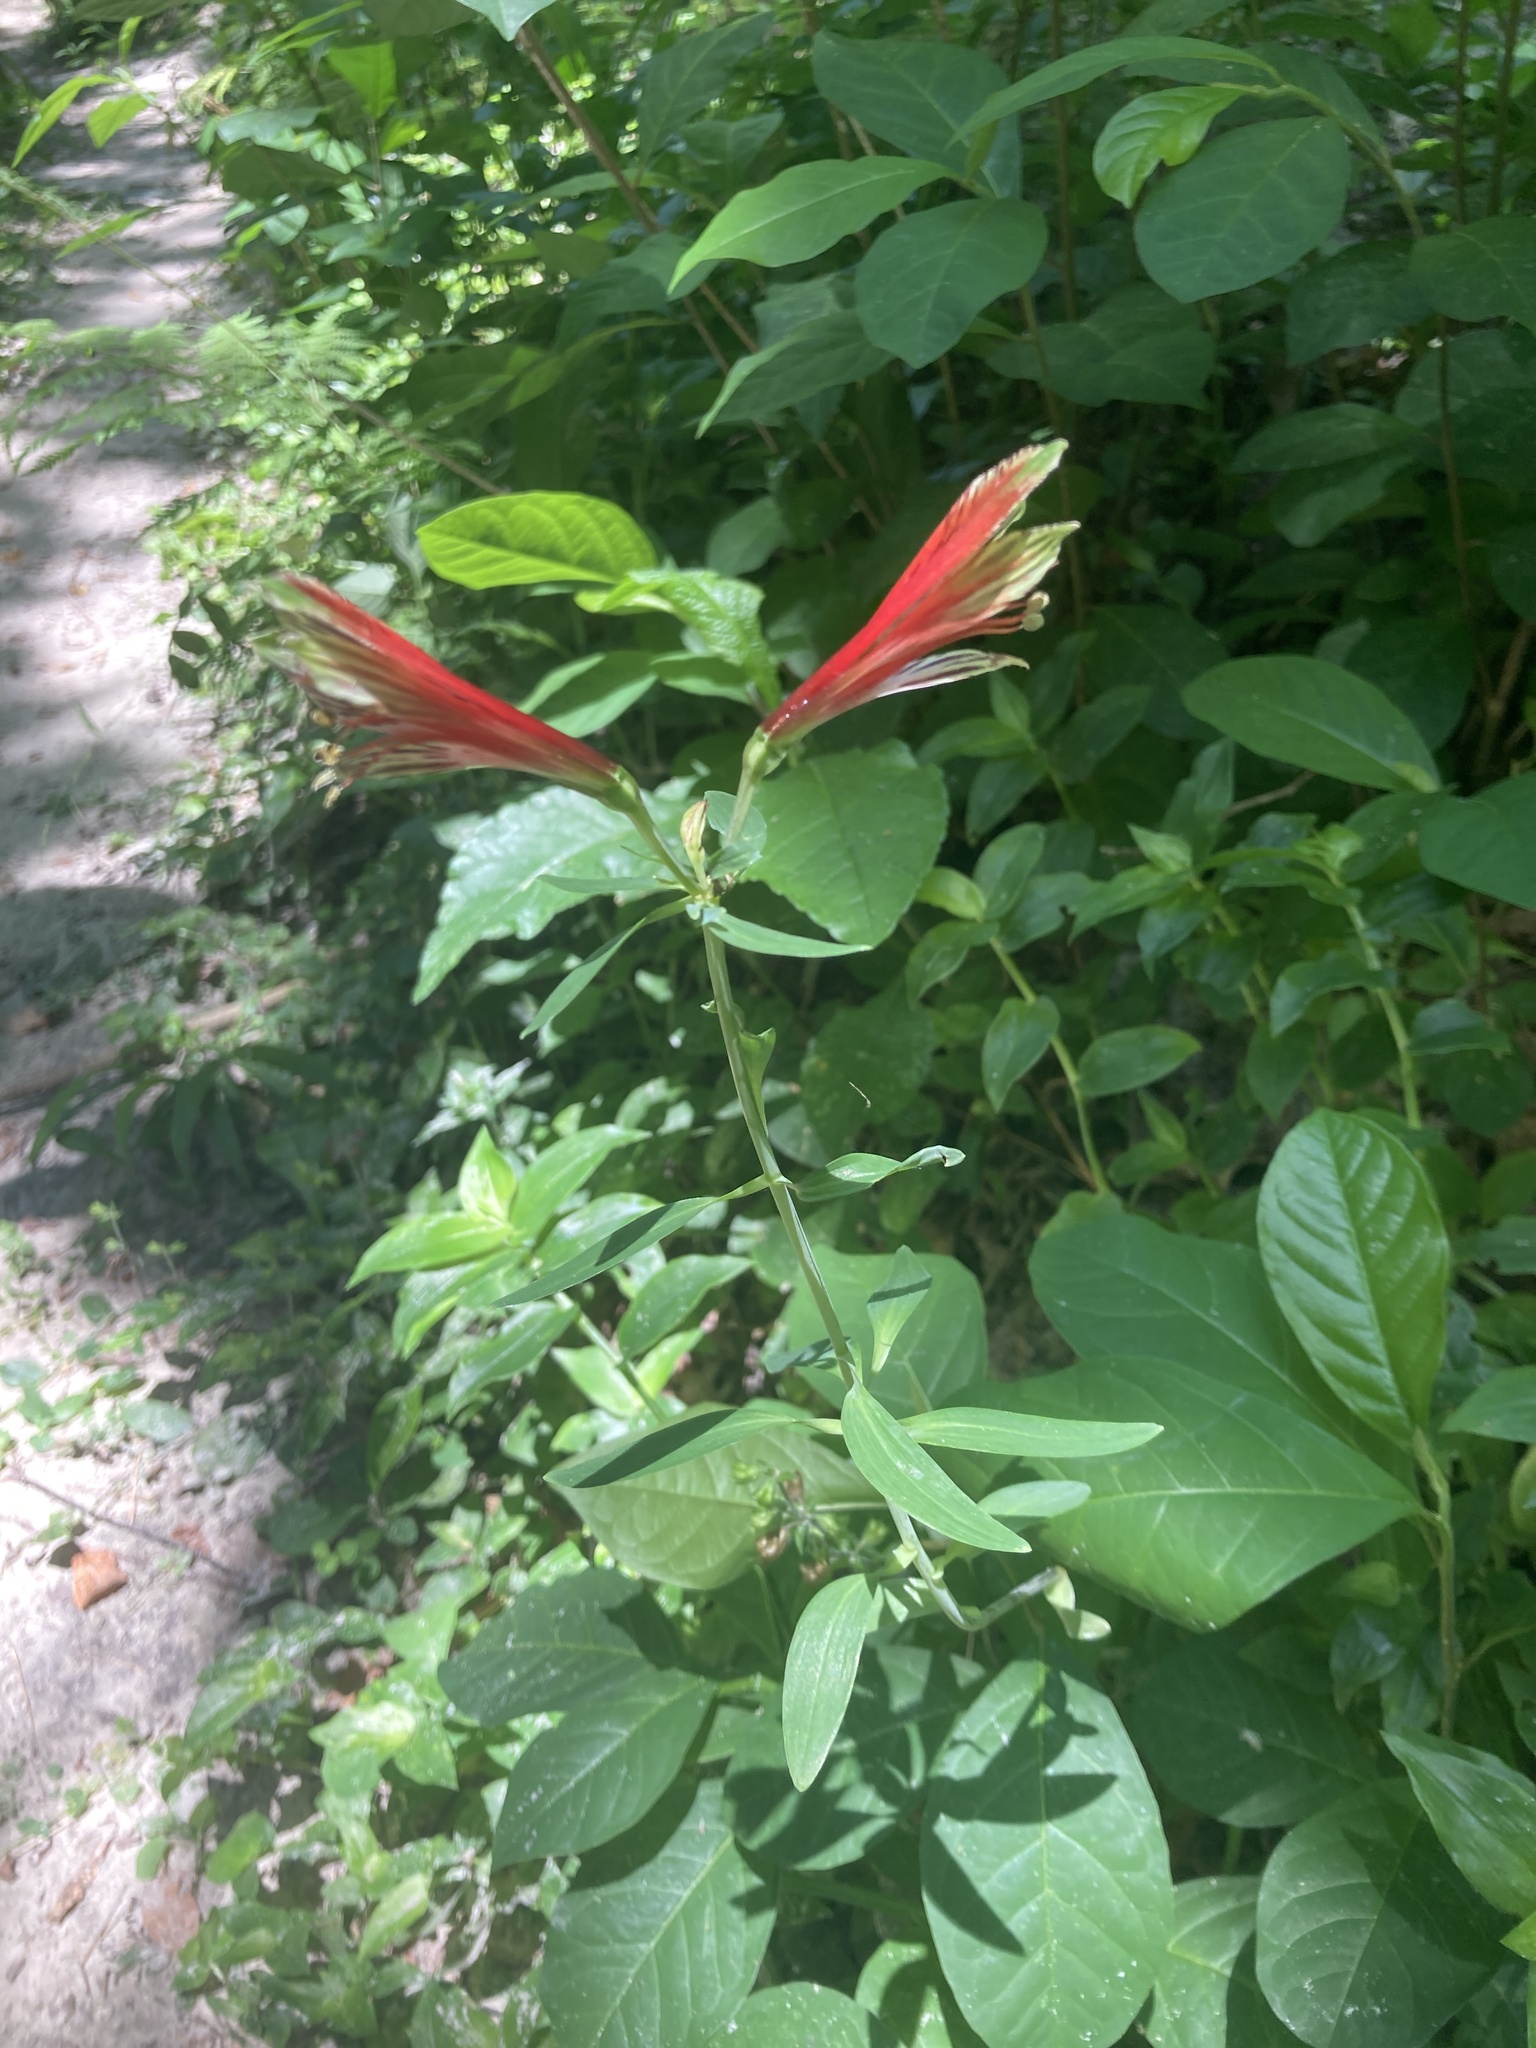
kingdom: Plantae
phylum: Tracheophyta
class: Liliopsida
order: Liliales
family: Alstroemeriaceae
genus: Alstroemeria
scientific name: Alstroemeria psittacina
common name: Peruvian-lily
